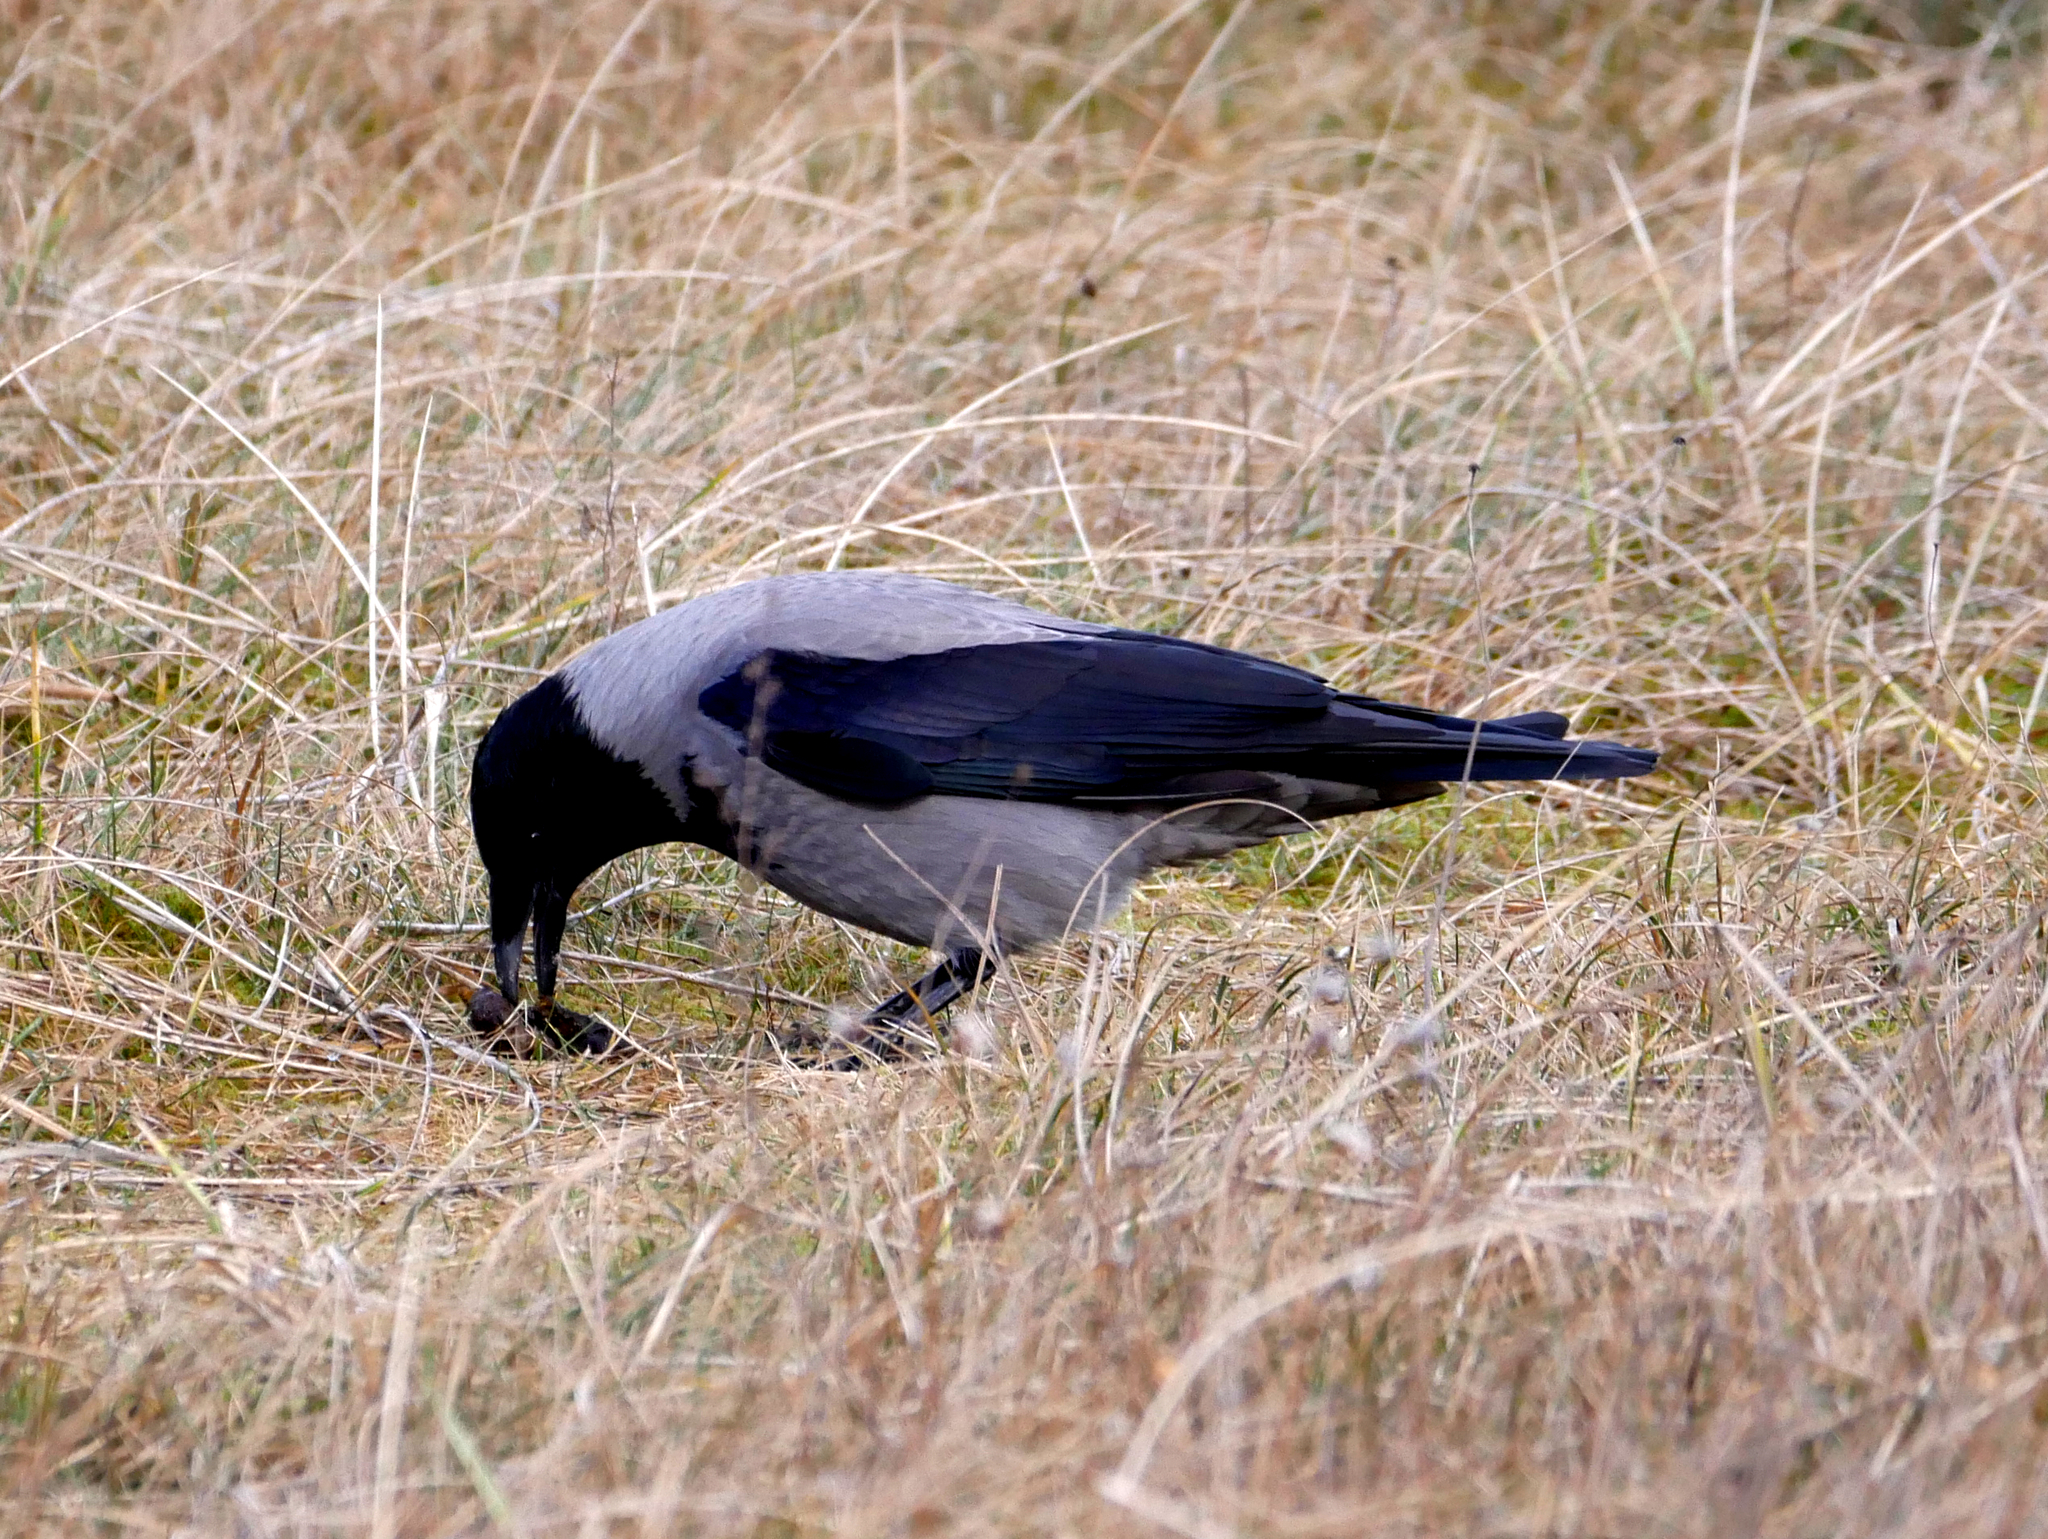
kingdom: Animalia
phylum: Chordata
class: Aves
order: Passeriformes
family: Corvidae
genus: Corvus
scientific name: Corvus cornix
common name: Hooded crow
